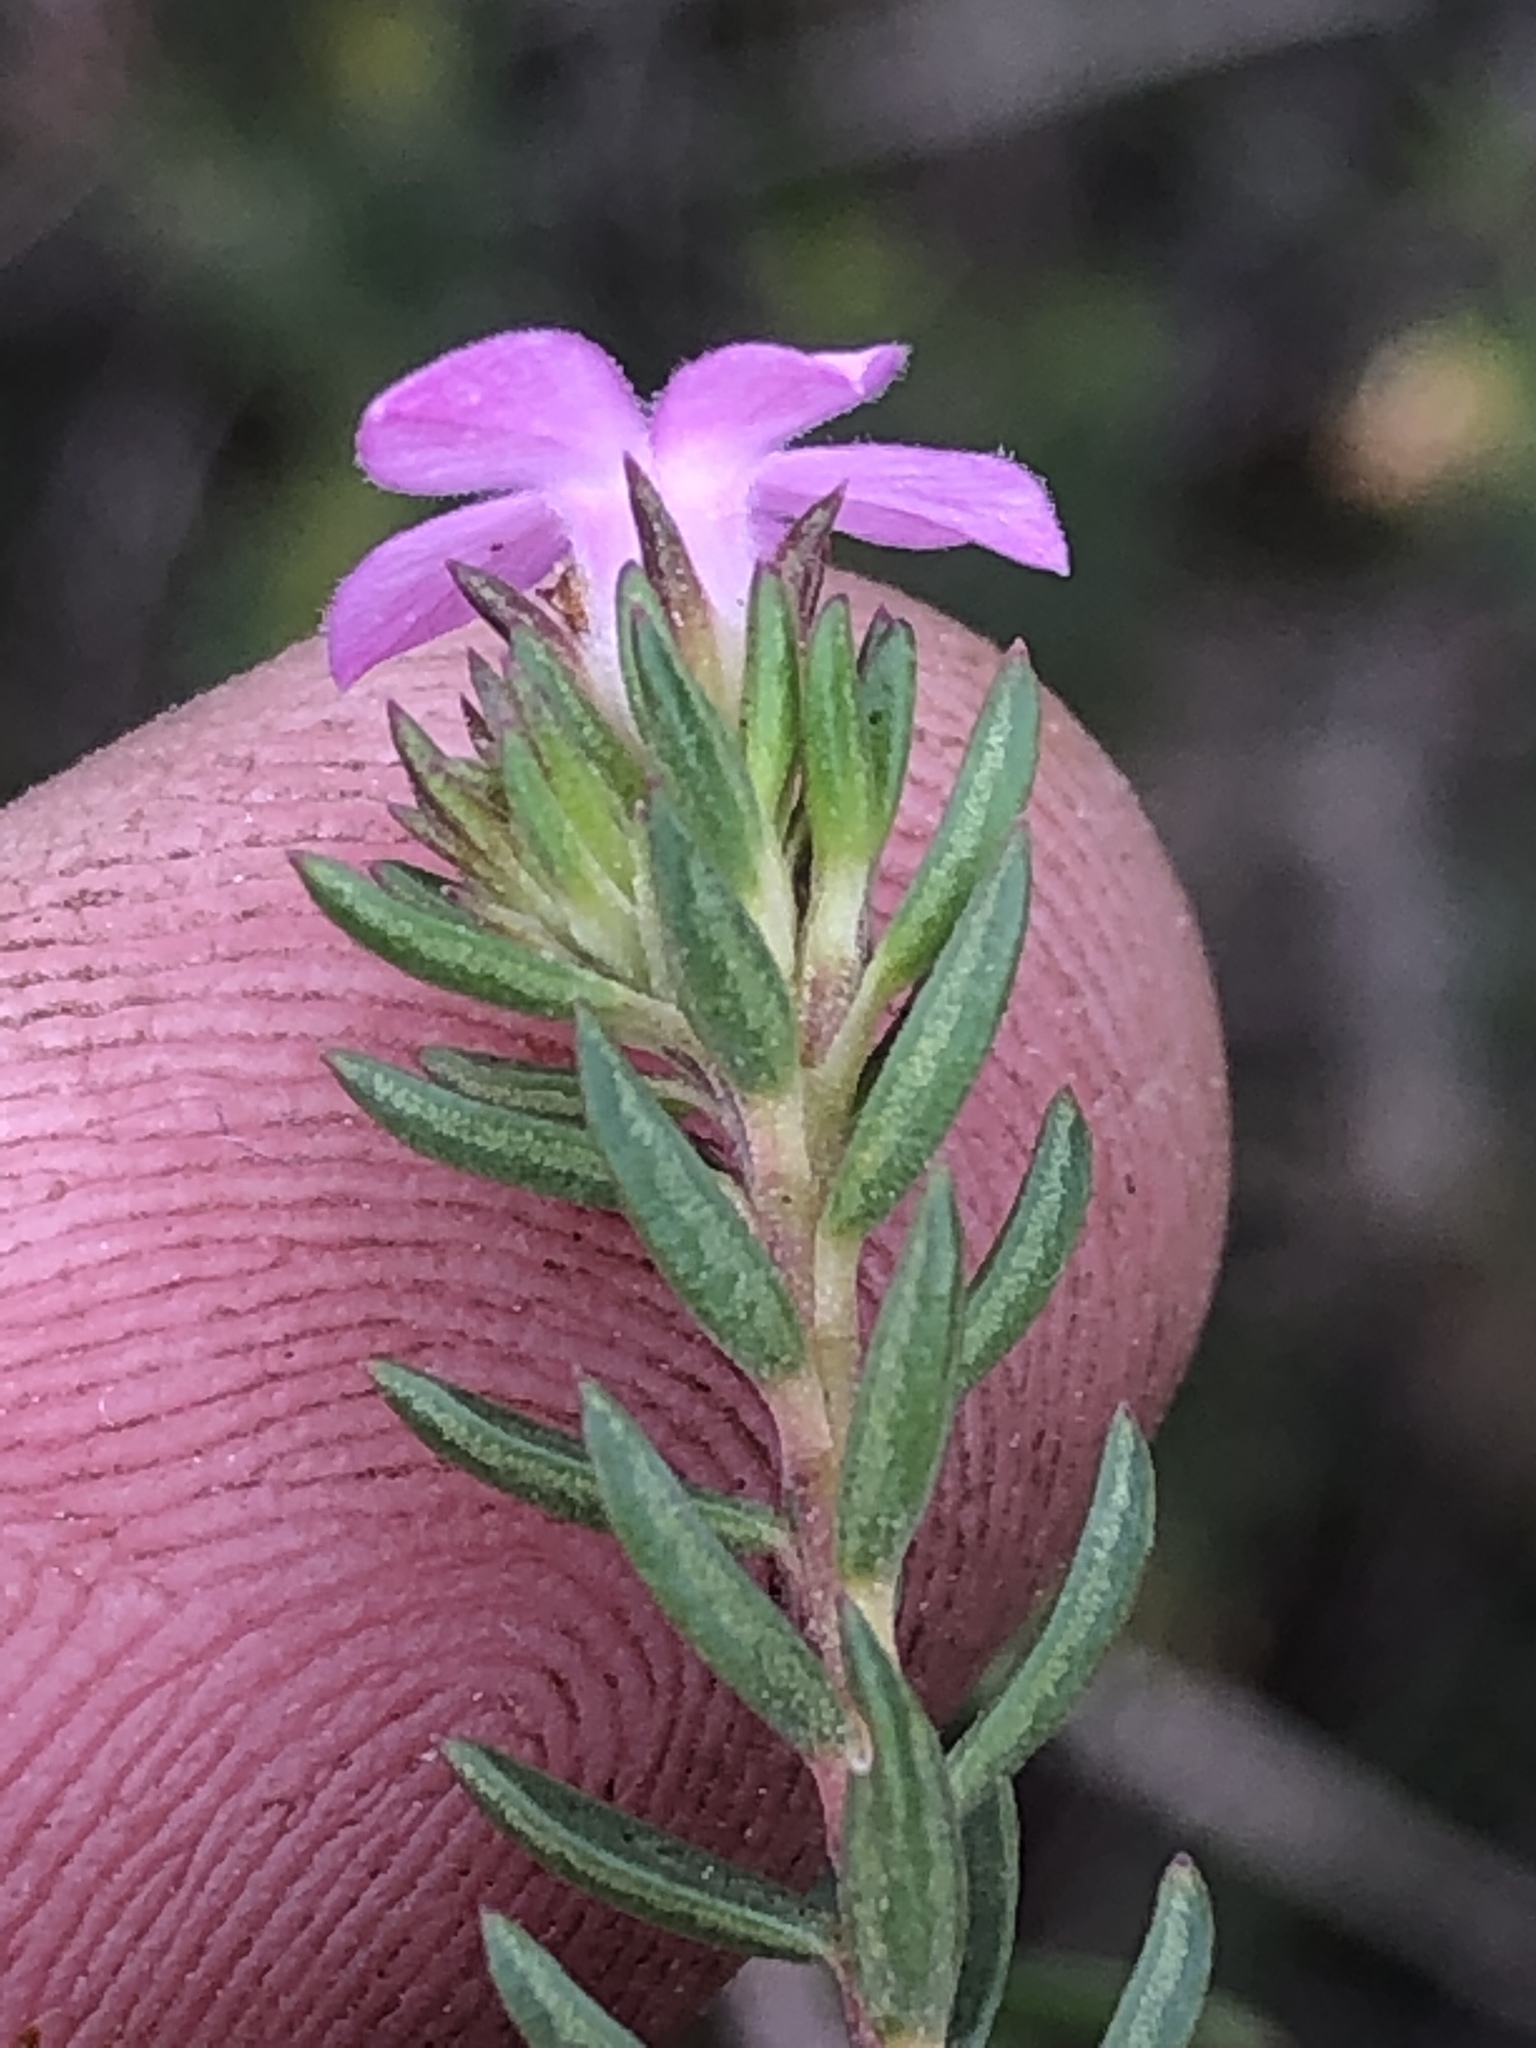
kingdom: Plantae
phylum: Tracheophyta
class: Magnoliopsida
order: Sapindales
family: Rutaceae
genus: Acmadenia
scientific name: Acmadenia alternifolia
